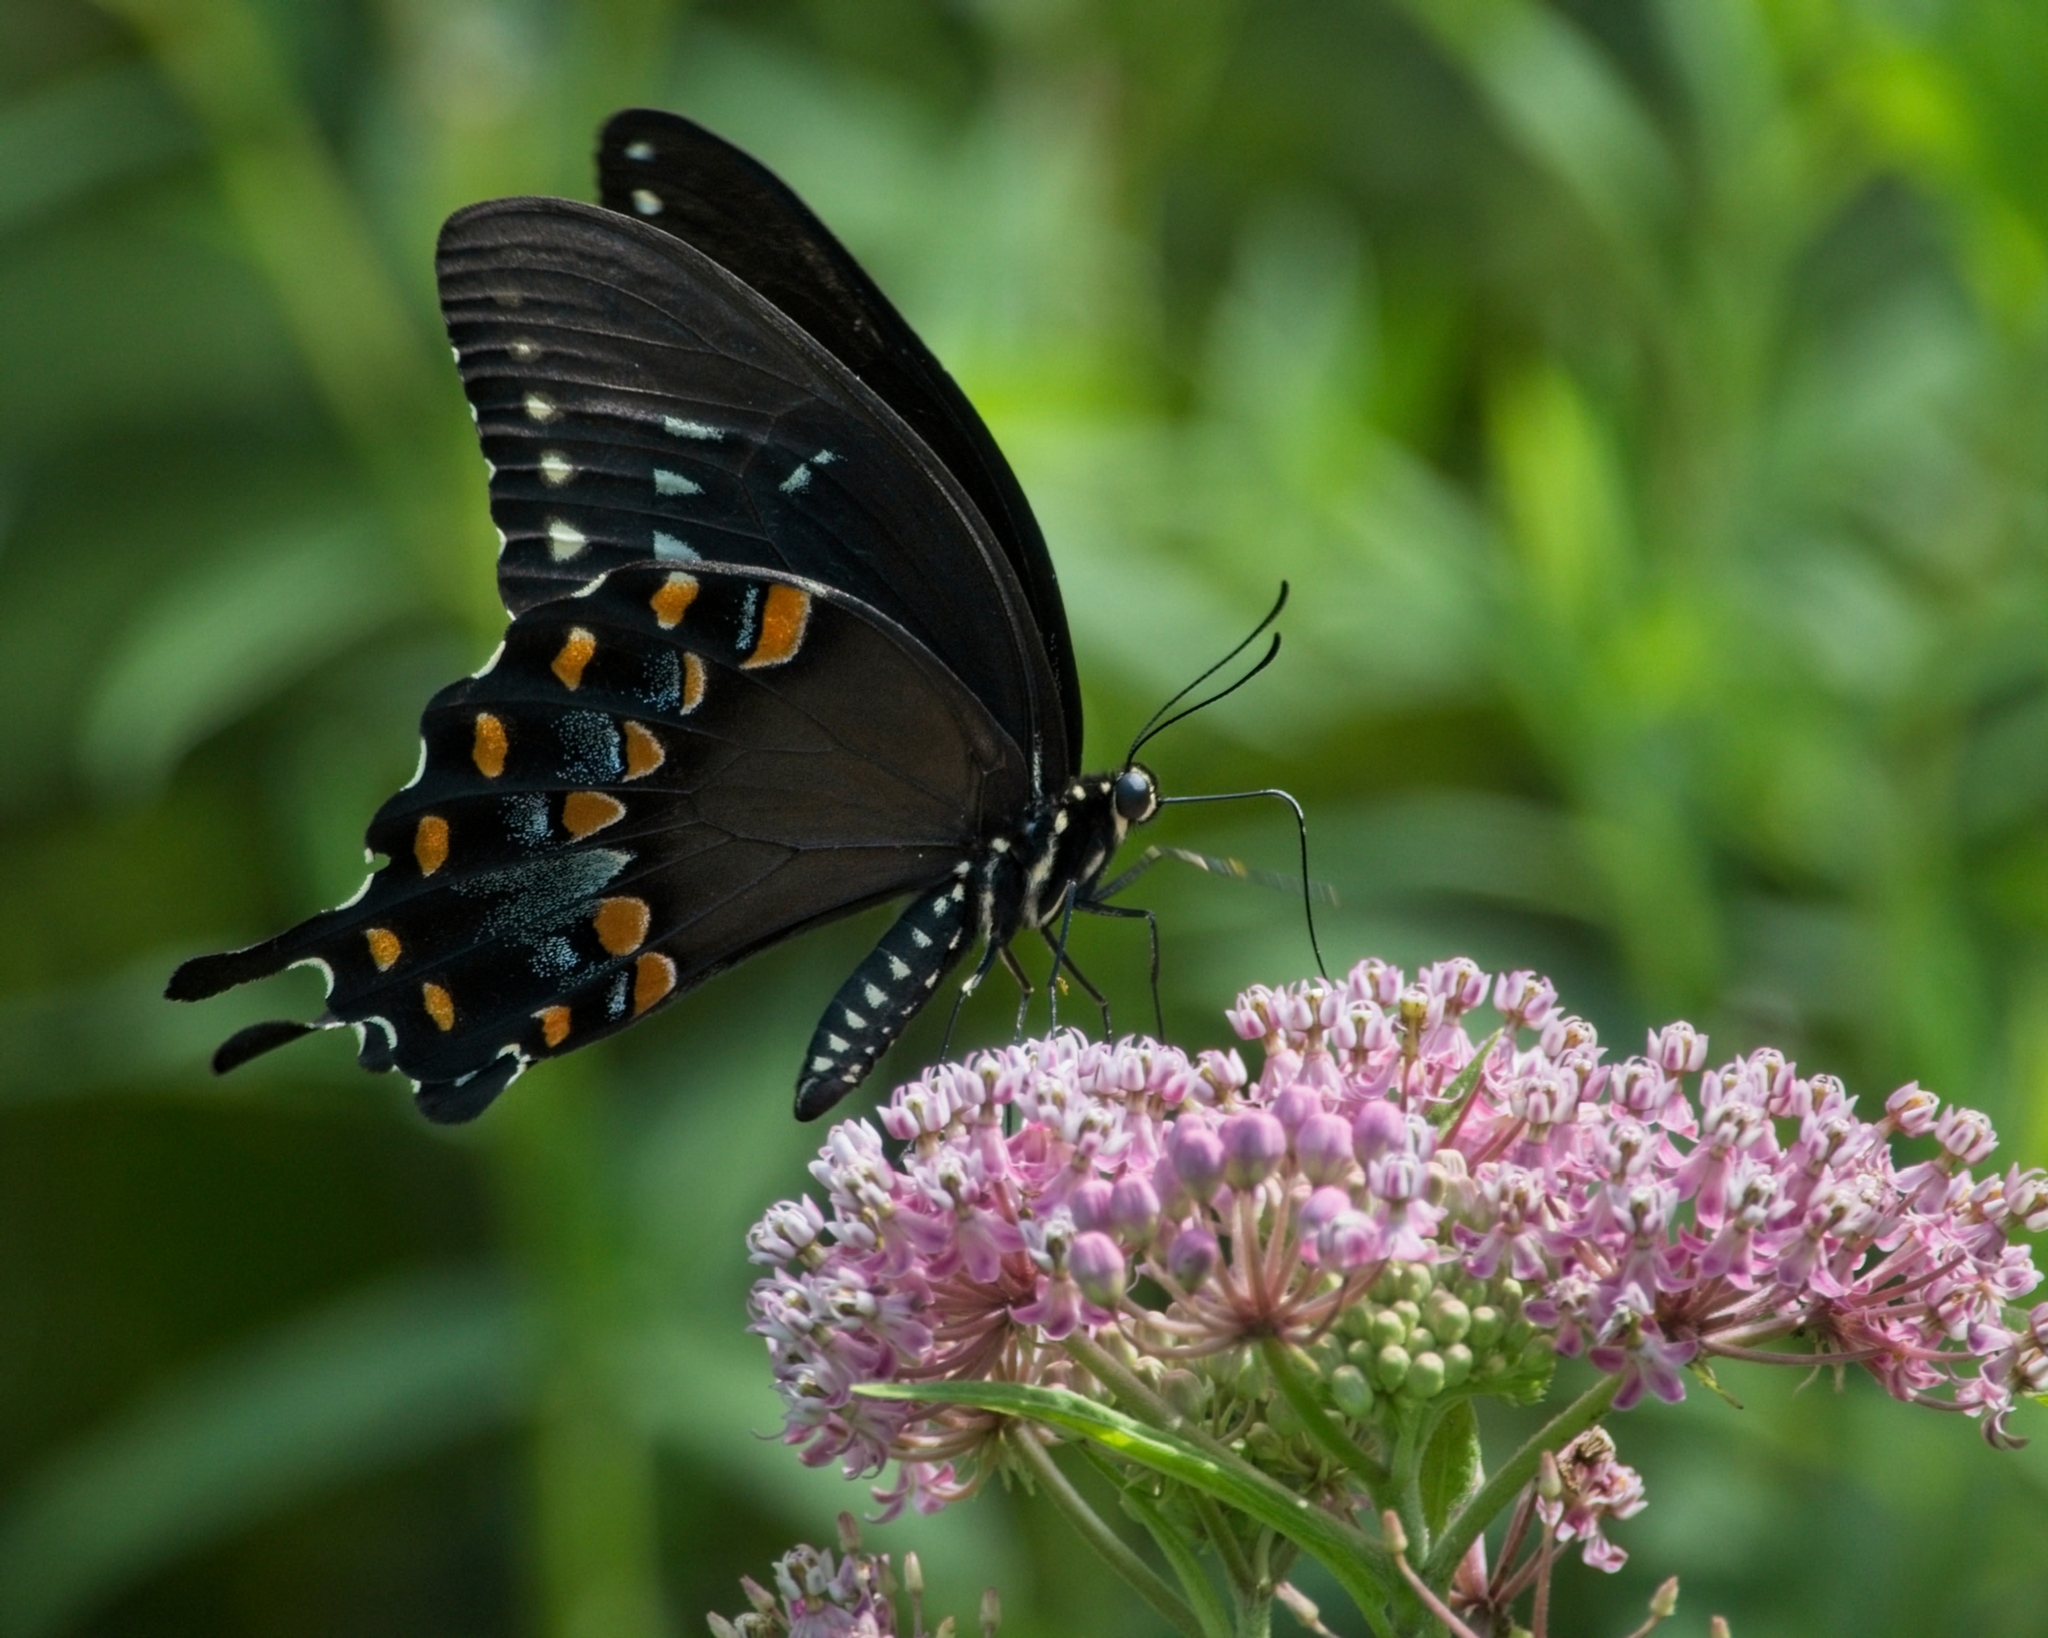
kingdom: Animalia
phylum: Arthropoda
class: Insecta
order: Lepidoptera
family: Papilionidae
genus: Papilio
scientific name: Papilio troilus
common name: Spicebush swallowtail
